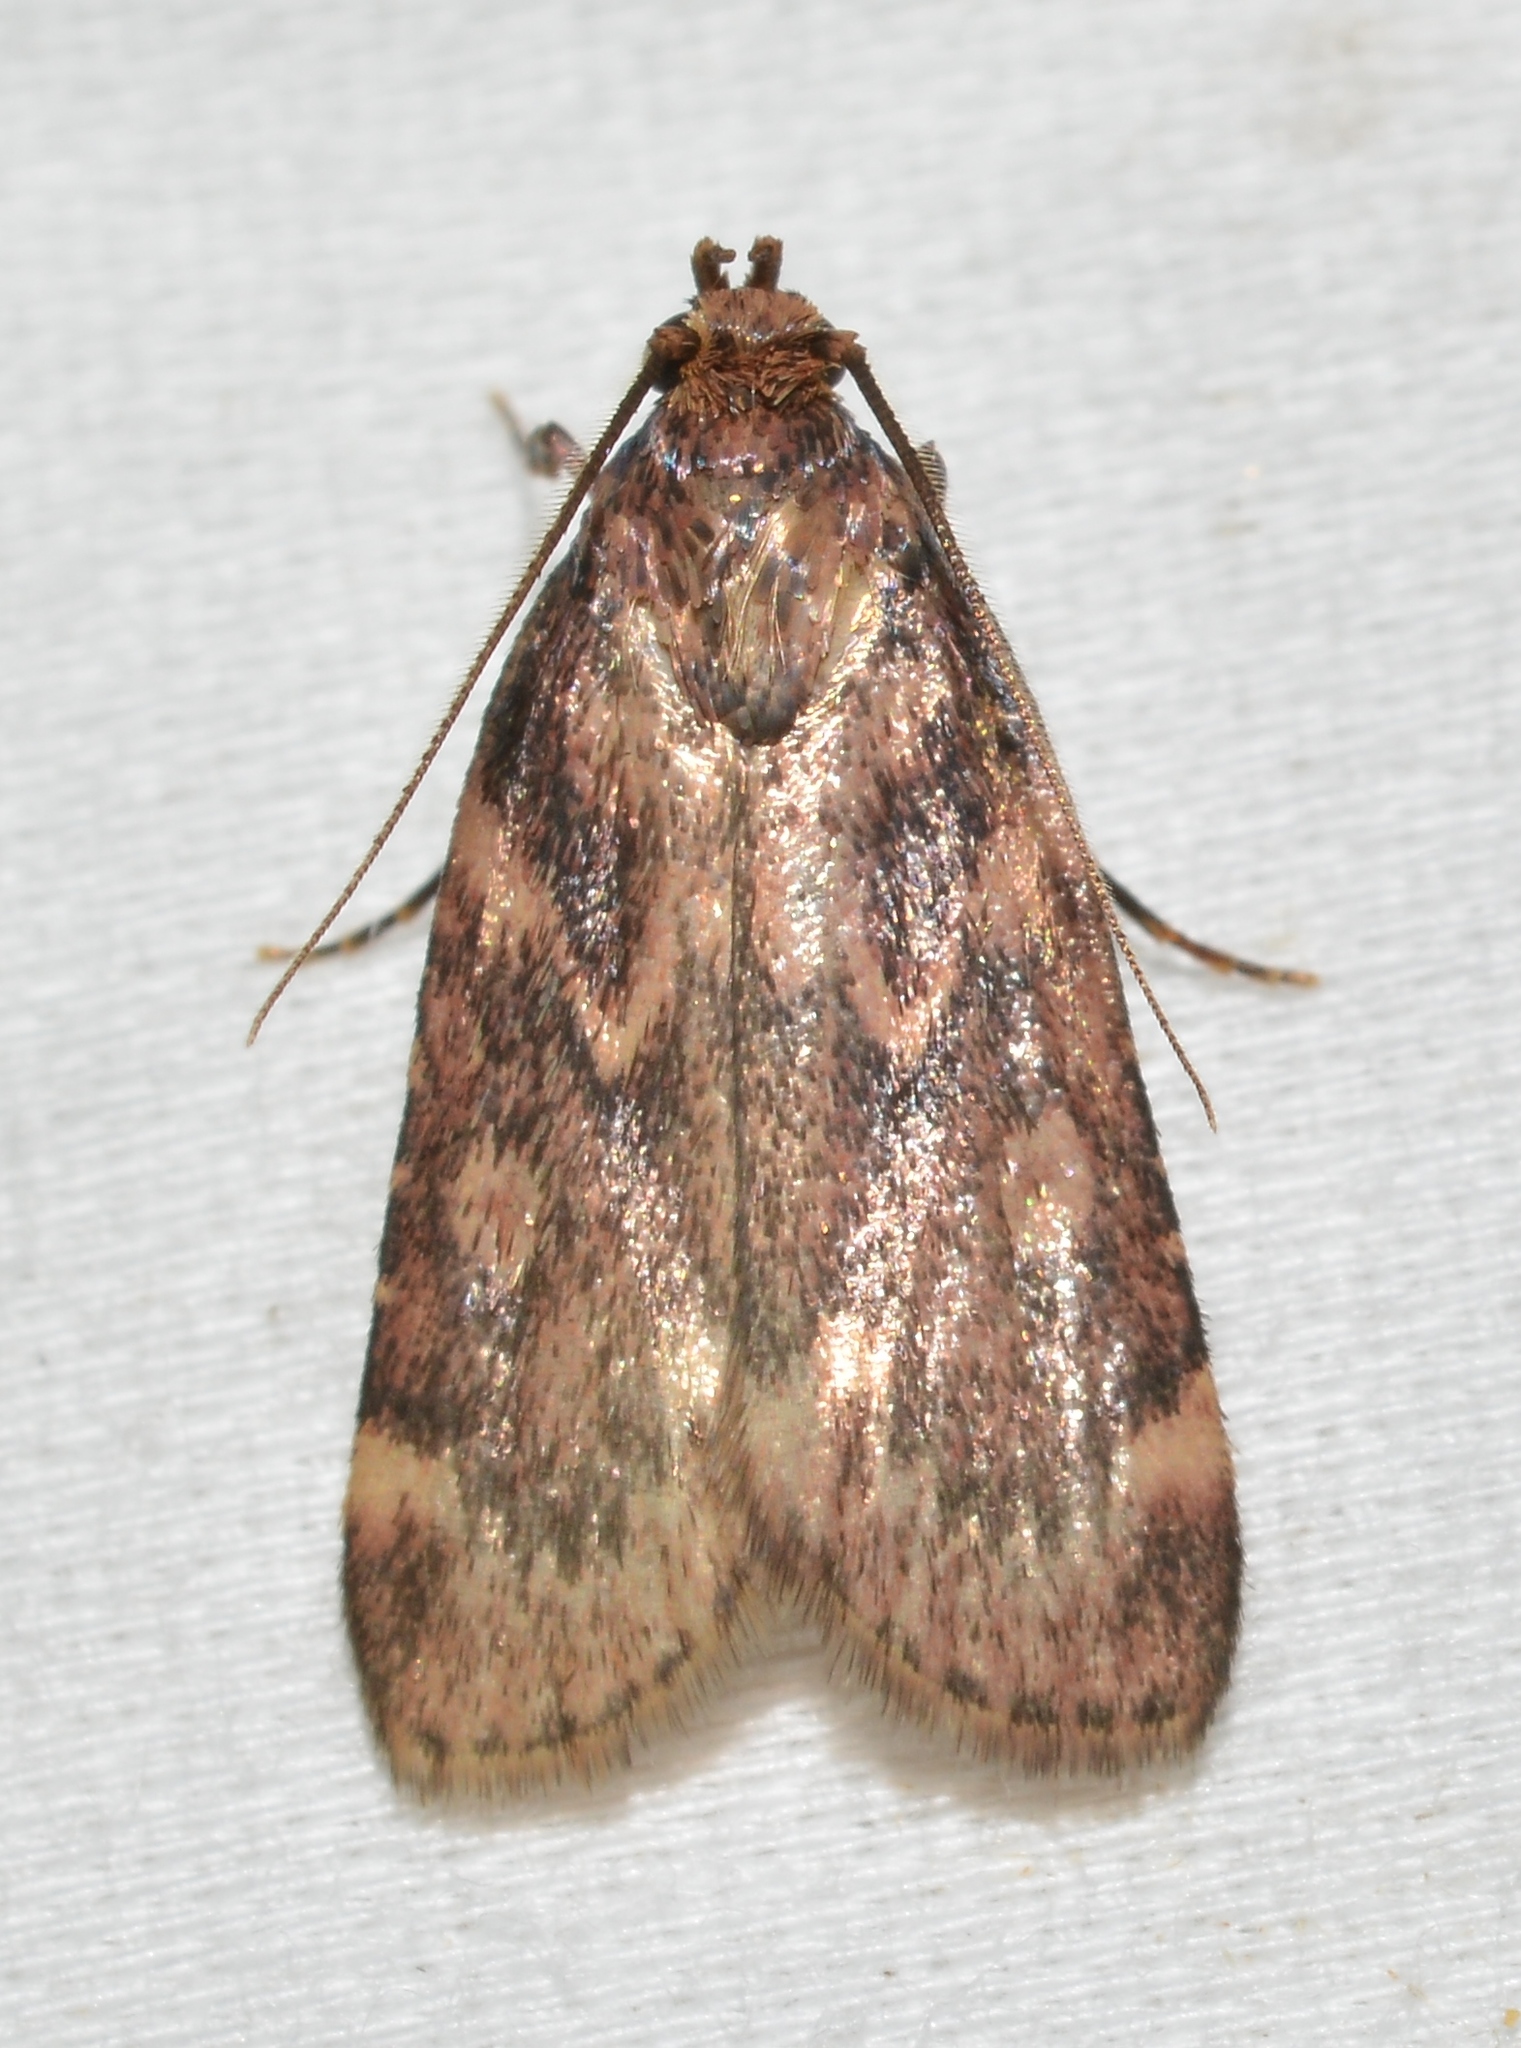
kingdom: Animalia
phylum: Arthropoda
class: Insecta
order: Lepidoptera
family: Pyralidae
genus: Aglossa
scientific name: Aglossa cuprina
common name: Grease moth
